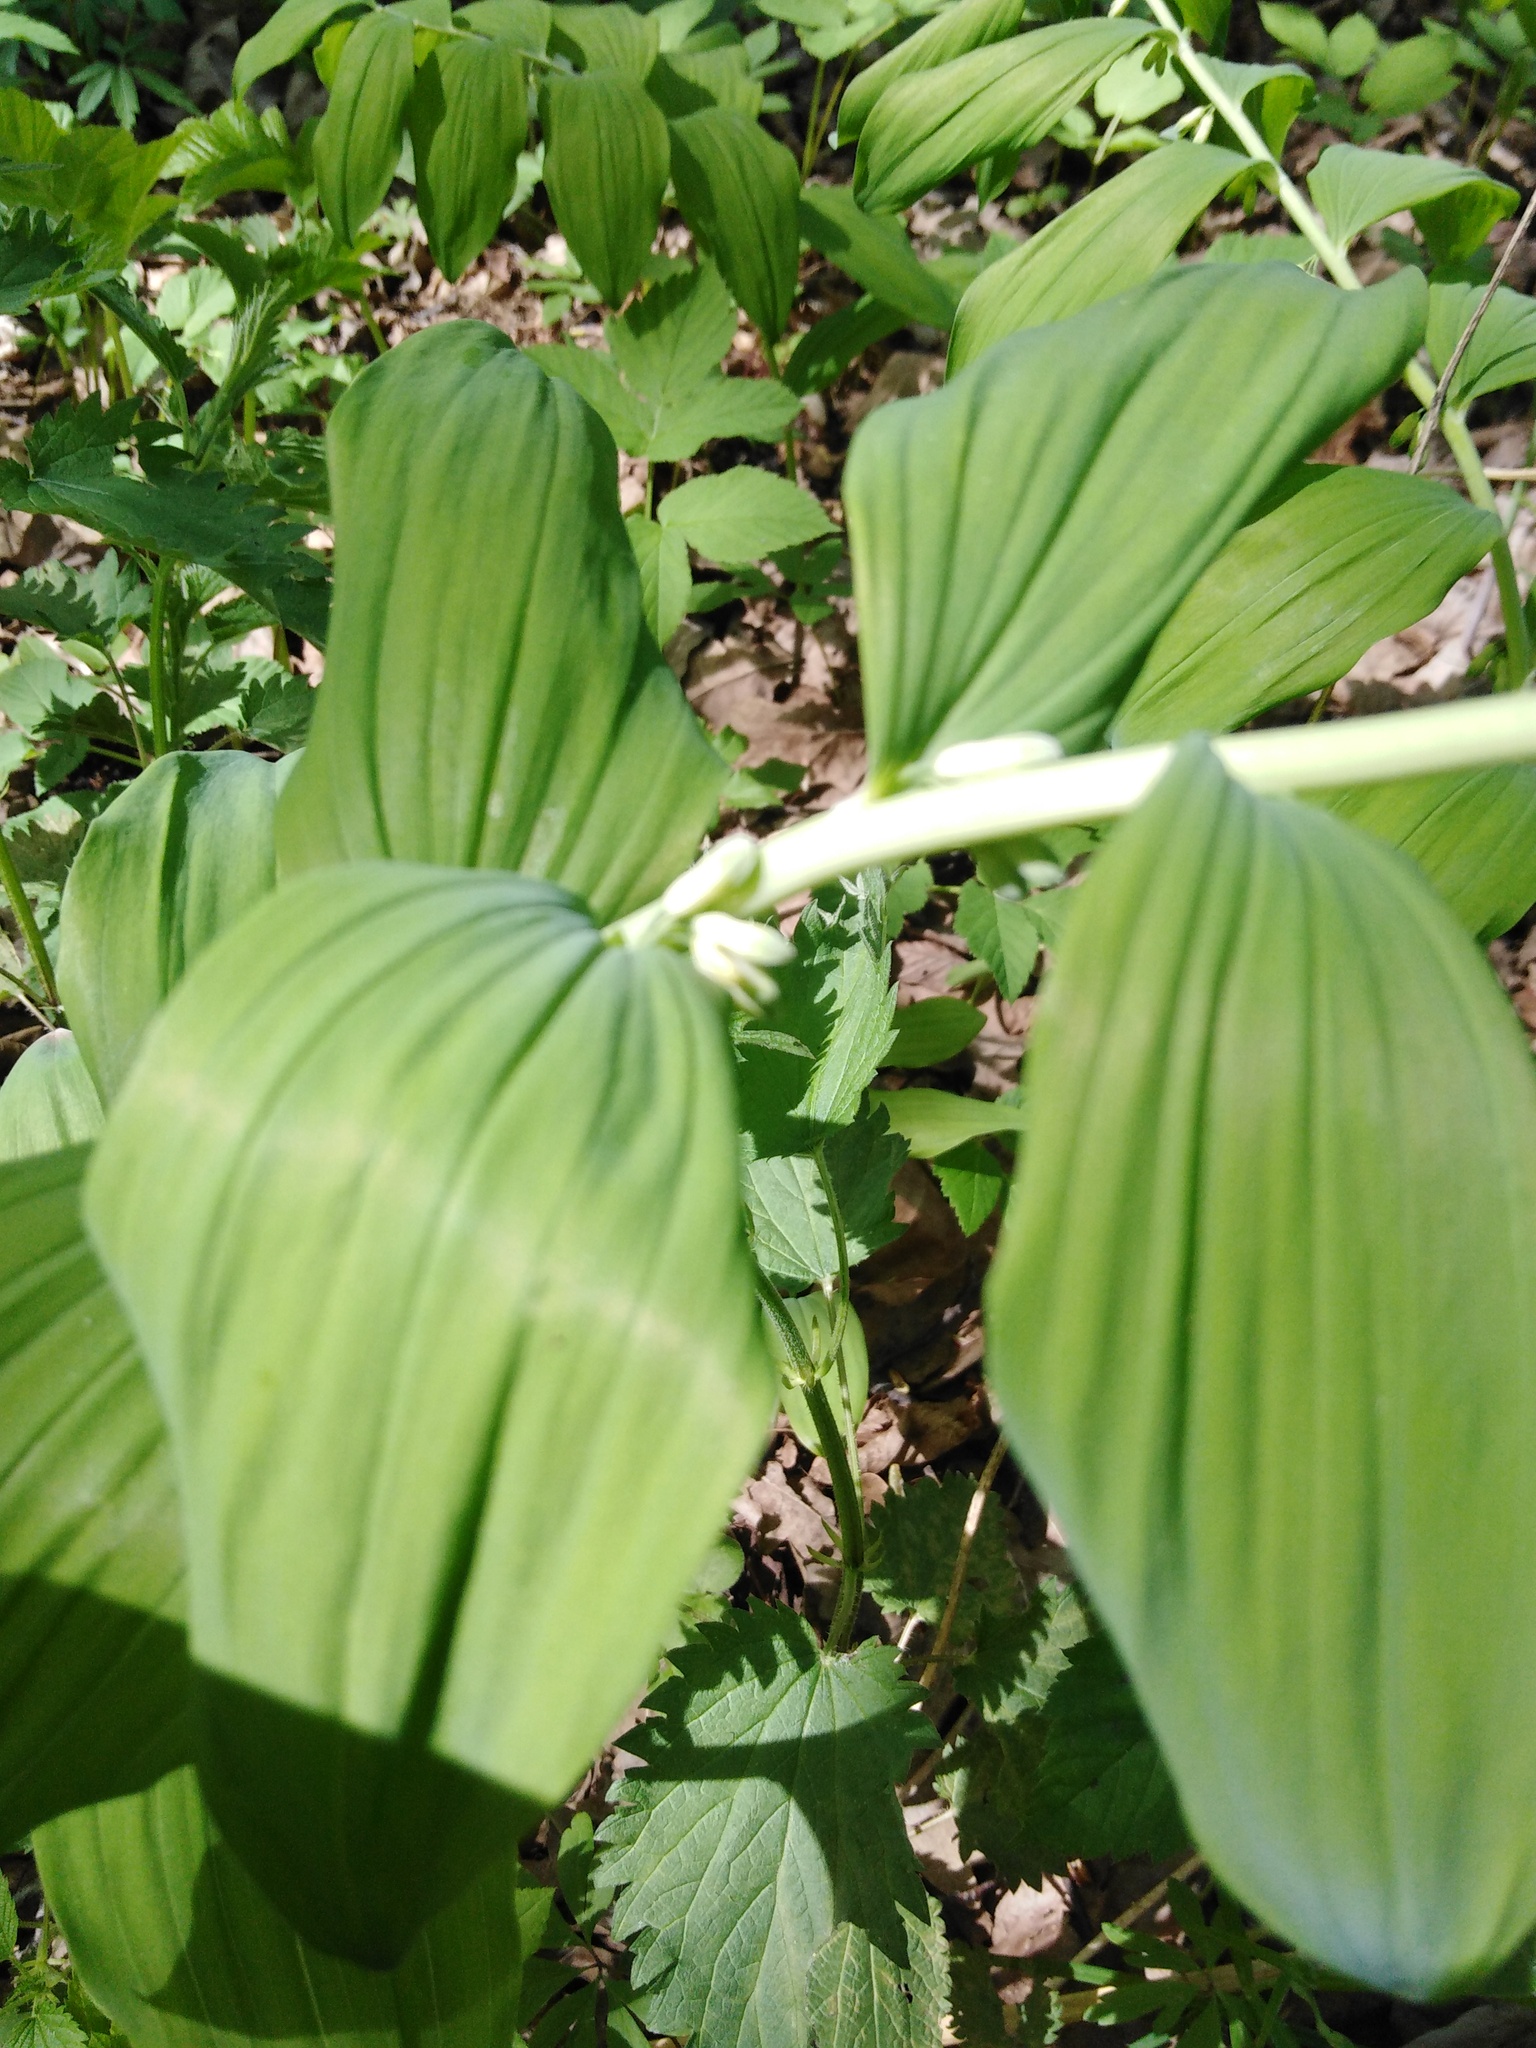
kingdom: Plantae
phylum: Tracheophyta
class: Liliopsida
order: Asparagales
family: Asparagaceae
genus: Polygonatum
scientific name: Polygonatum multiflorum
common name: Solomon's-seal
